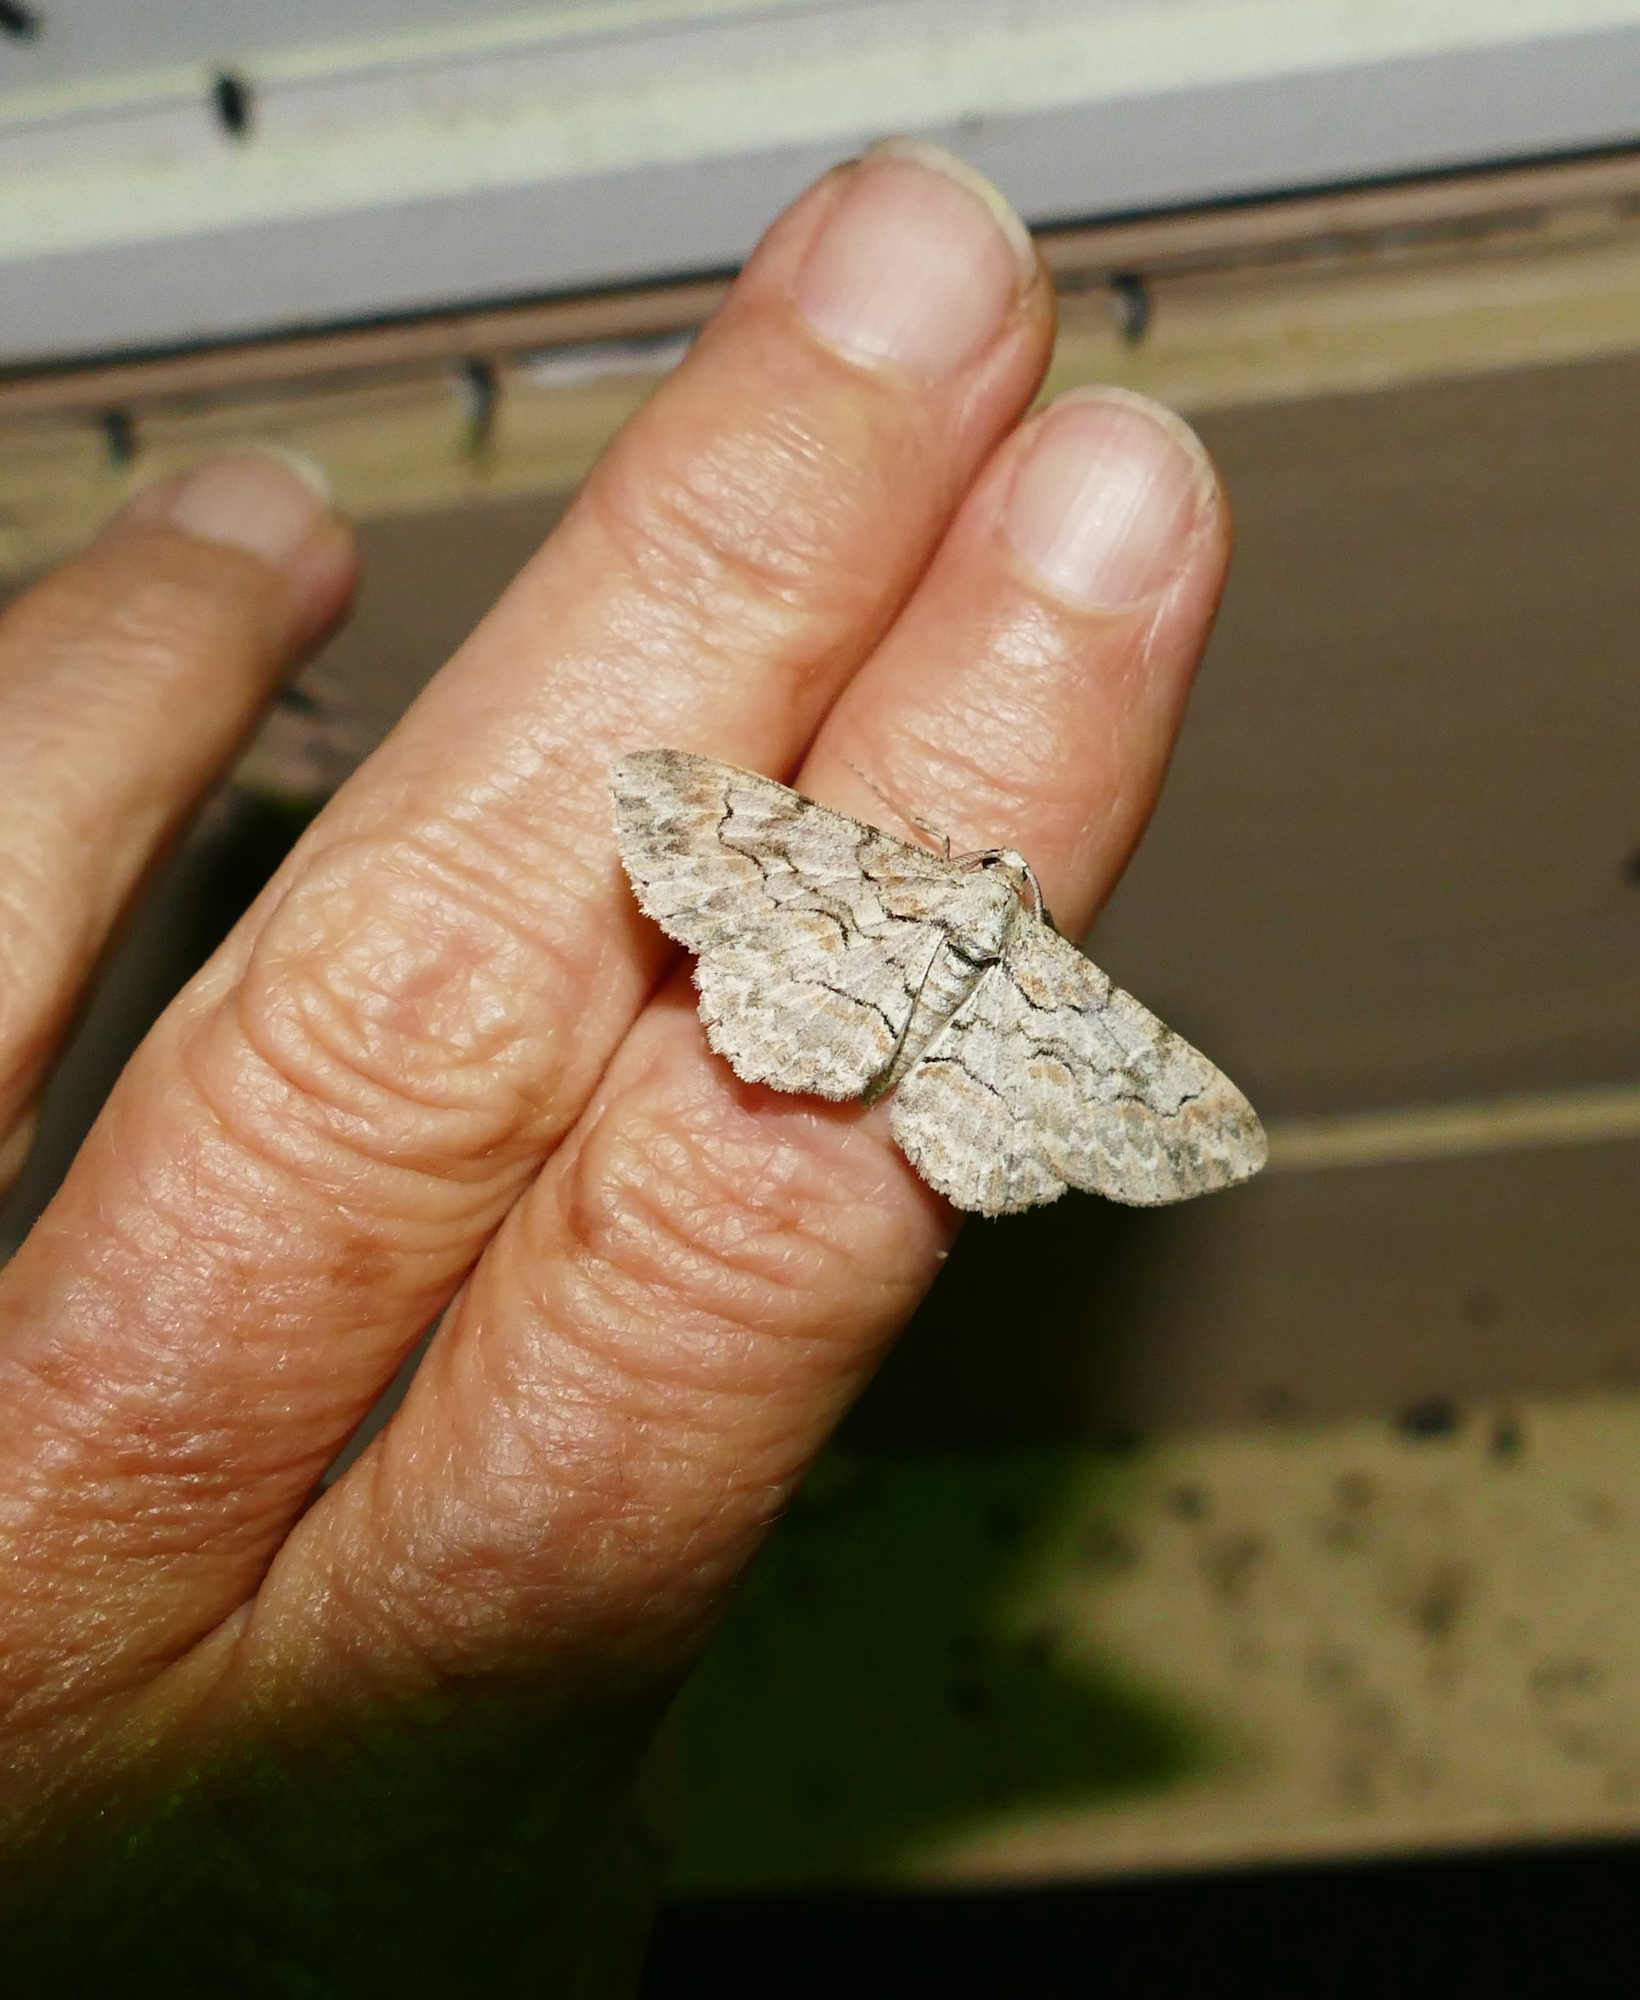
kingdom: Animalia
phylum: Arthropoda
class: Insecta
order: Lepidoptera
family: Geometridae
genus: Iridopsis
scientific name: Iridopsis defectaria
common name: Brown-shaded gray
